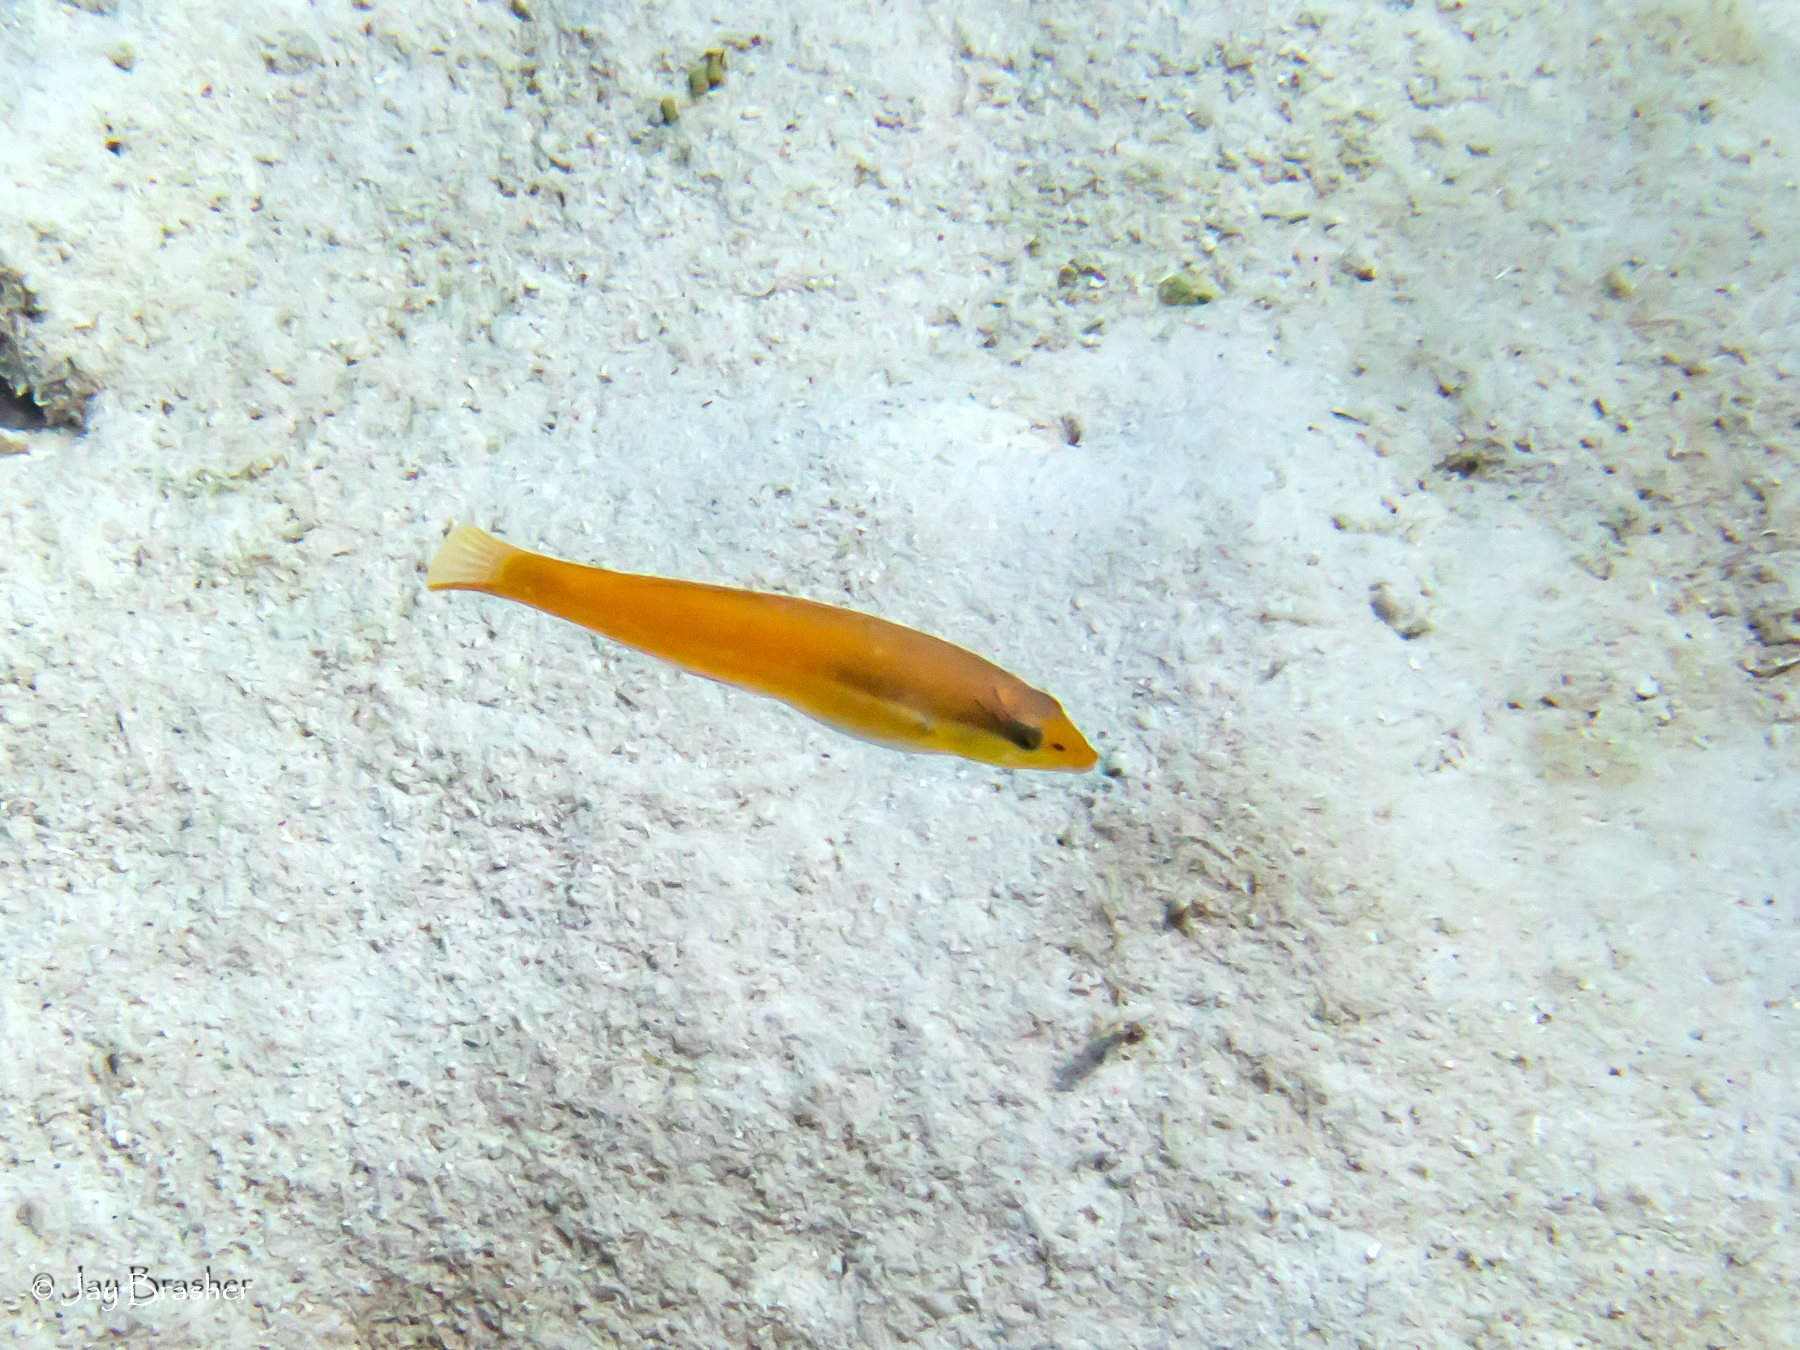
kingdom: Animalia
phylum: Chordata
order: Perciformes
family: Labridae
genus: Halichoeres
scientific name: Halichoeres garnoti
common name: Yellowhead wrasse
